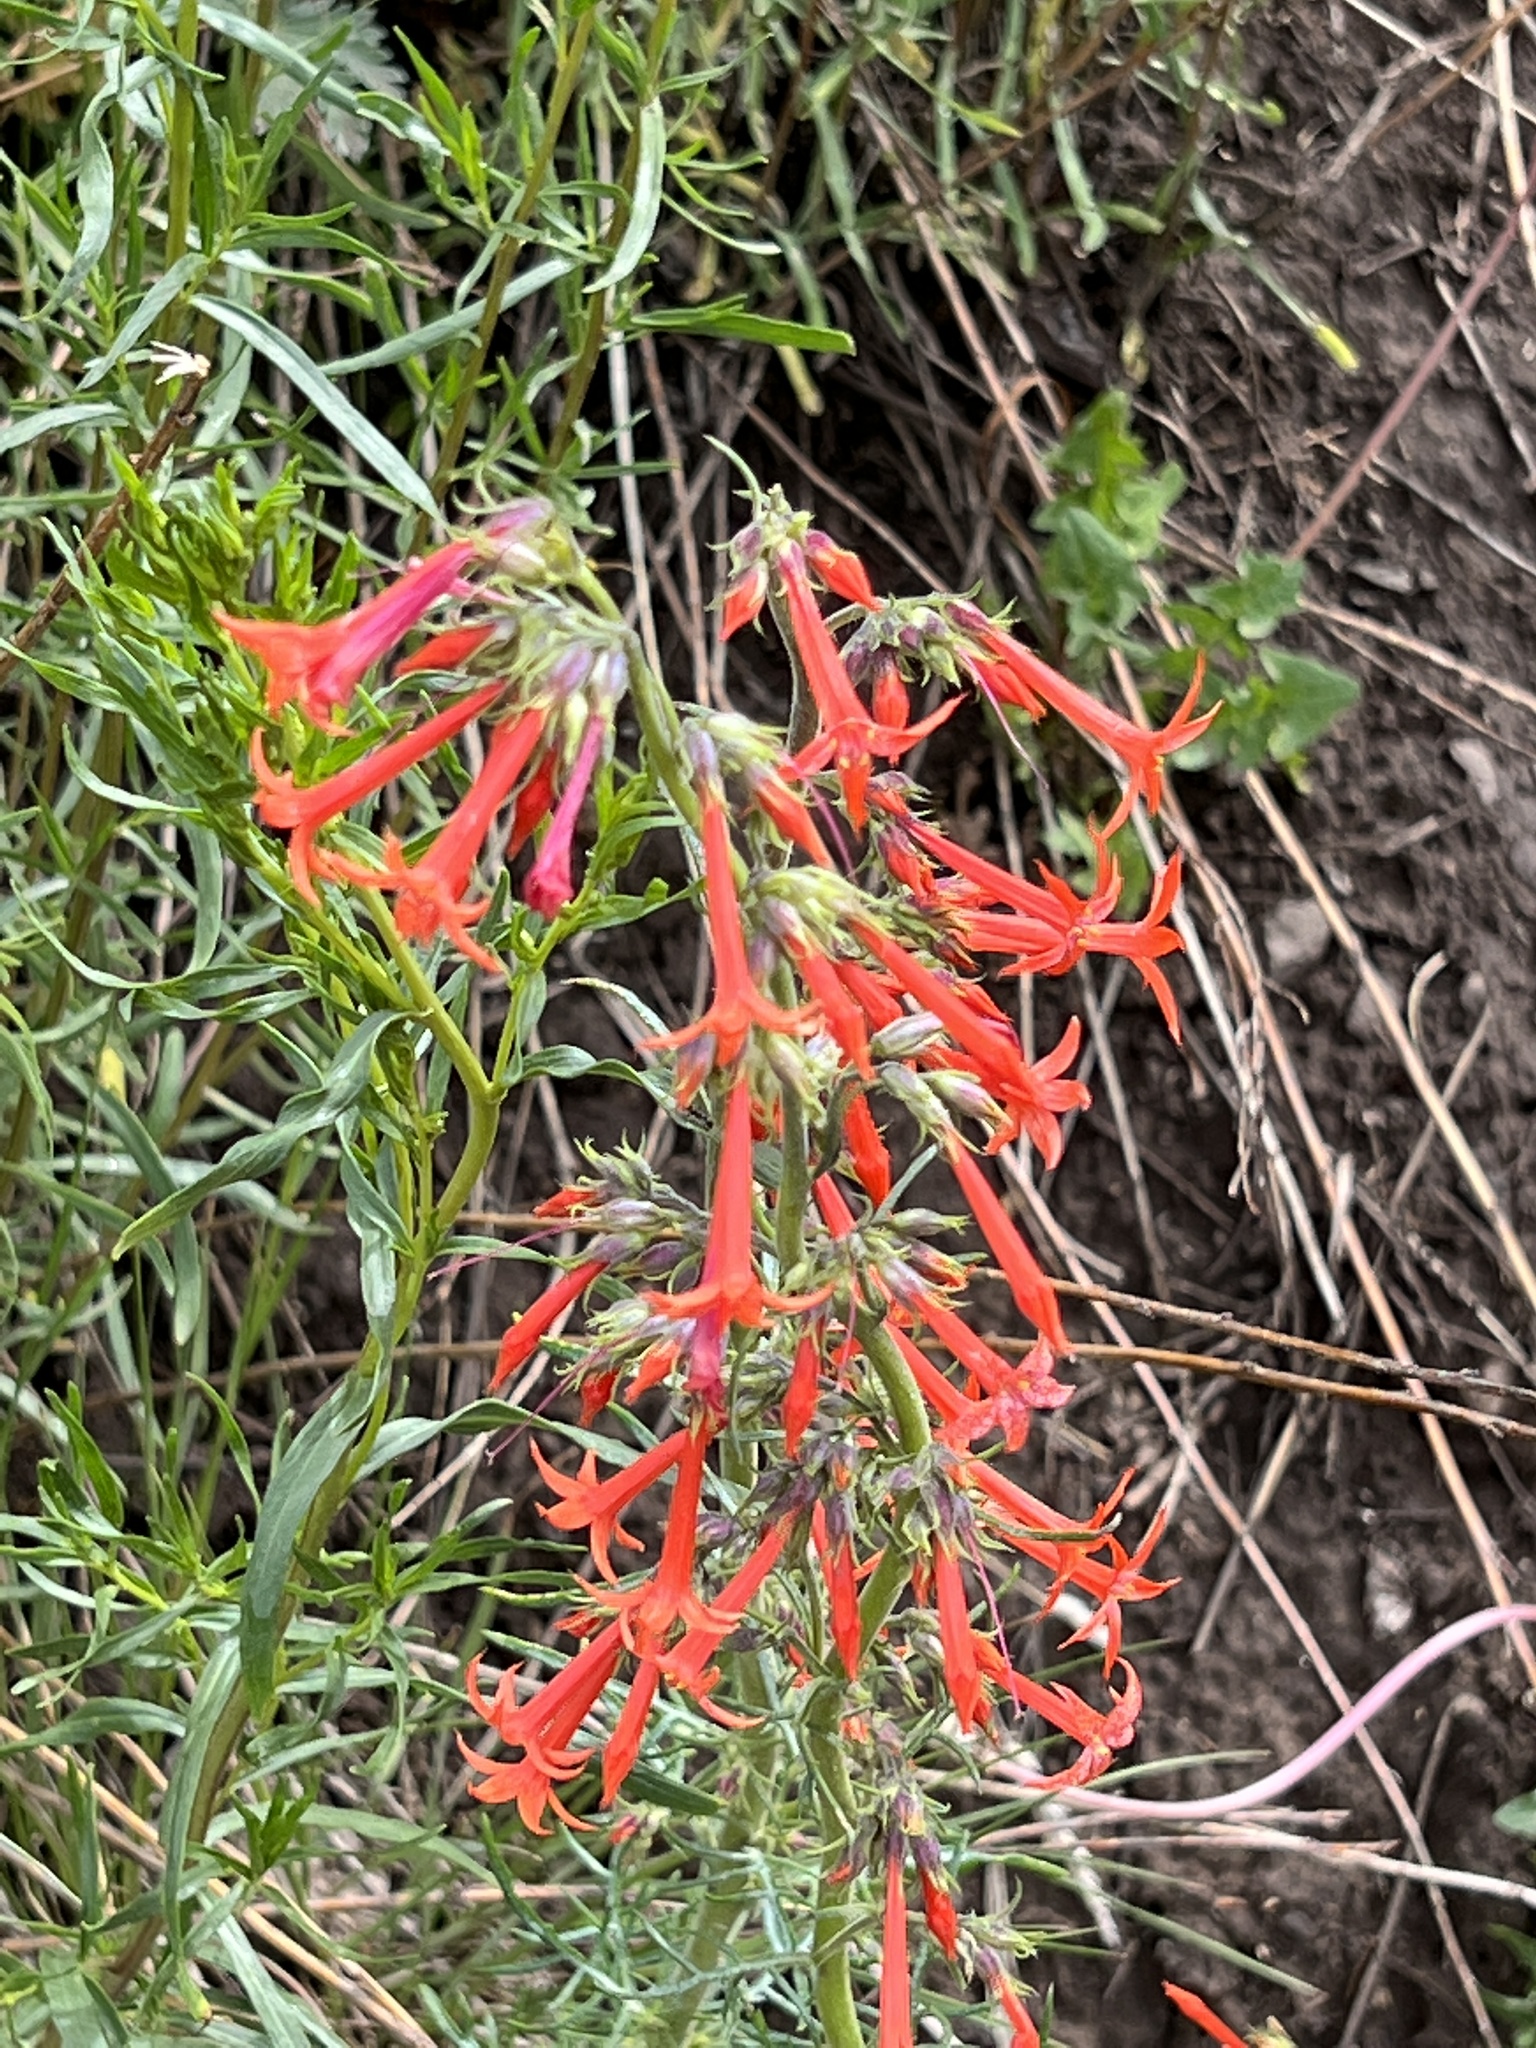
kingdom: Plantae
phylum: Tracheophyta
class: Magnoliopsida
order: Ericales
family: Polemoniaceae
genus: Ipomopsis
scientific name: Ipomopsis aggregata
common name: Scarlet gilia
